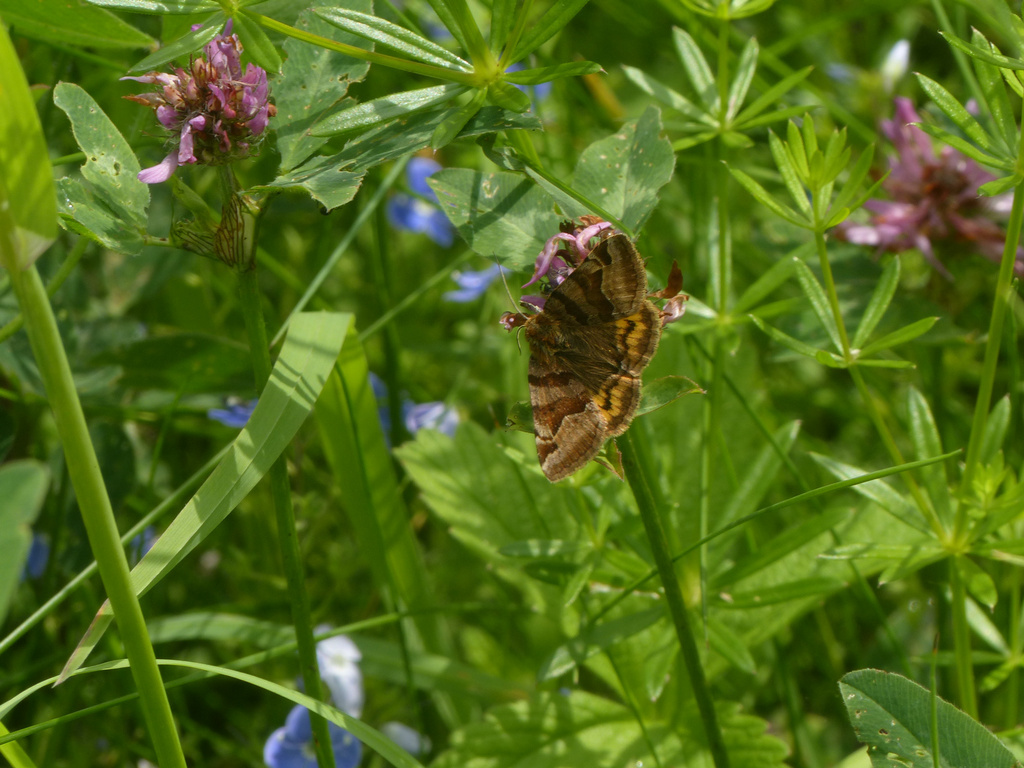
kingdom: Animalia
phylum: Arthropoda
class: Insecta
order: Lepidoptera
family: Erebidae
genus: Euclidia
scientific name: Euclidia glyphica
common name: Burnet companion
